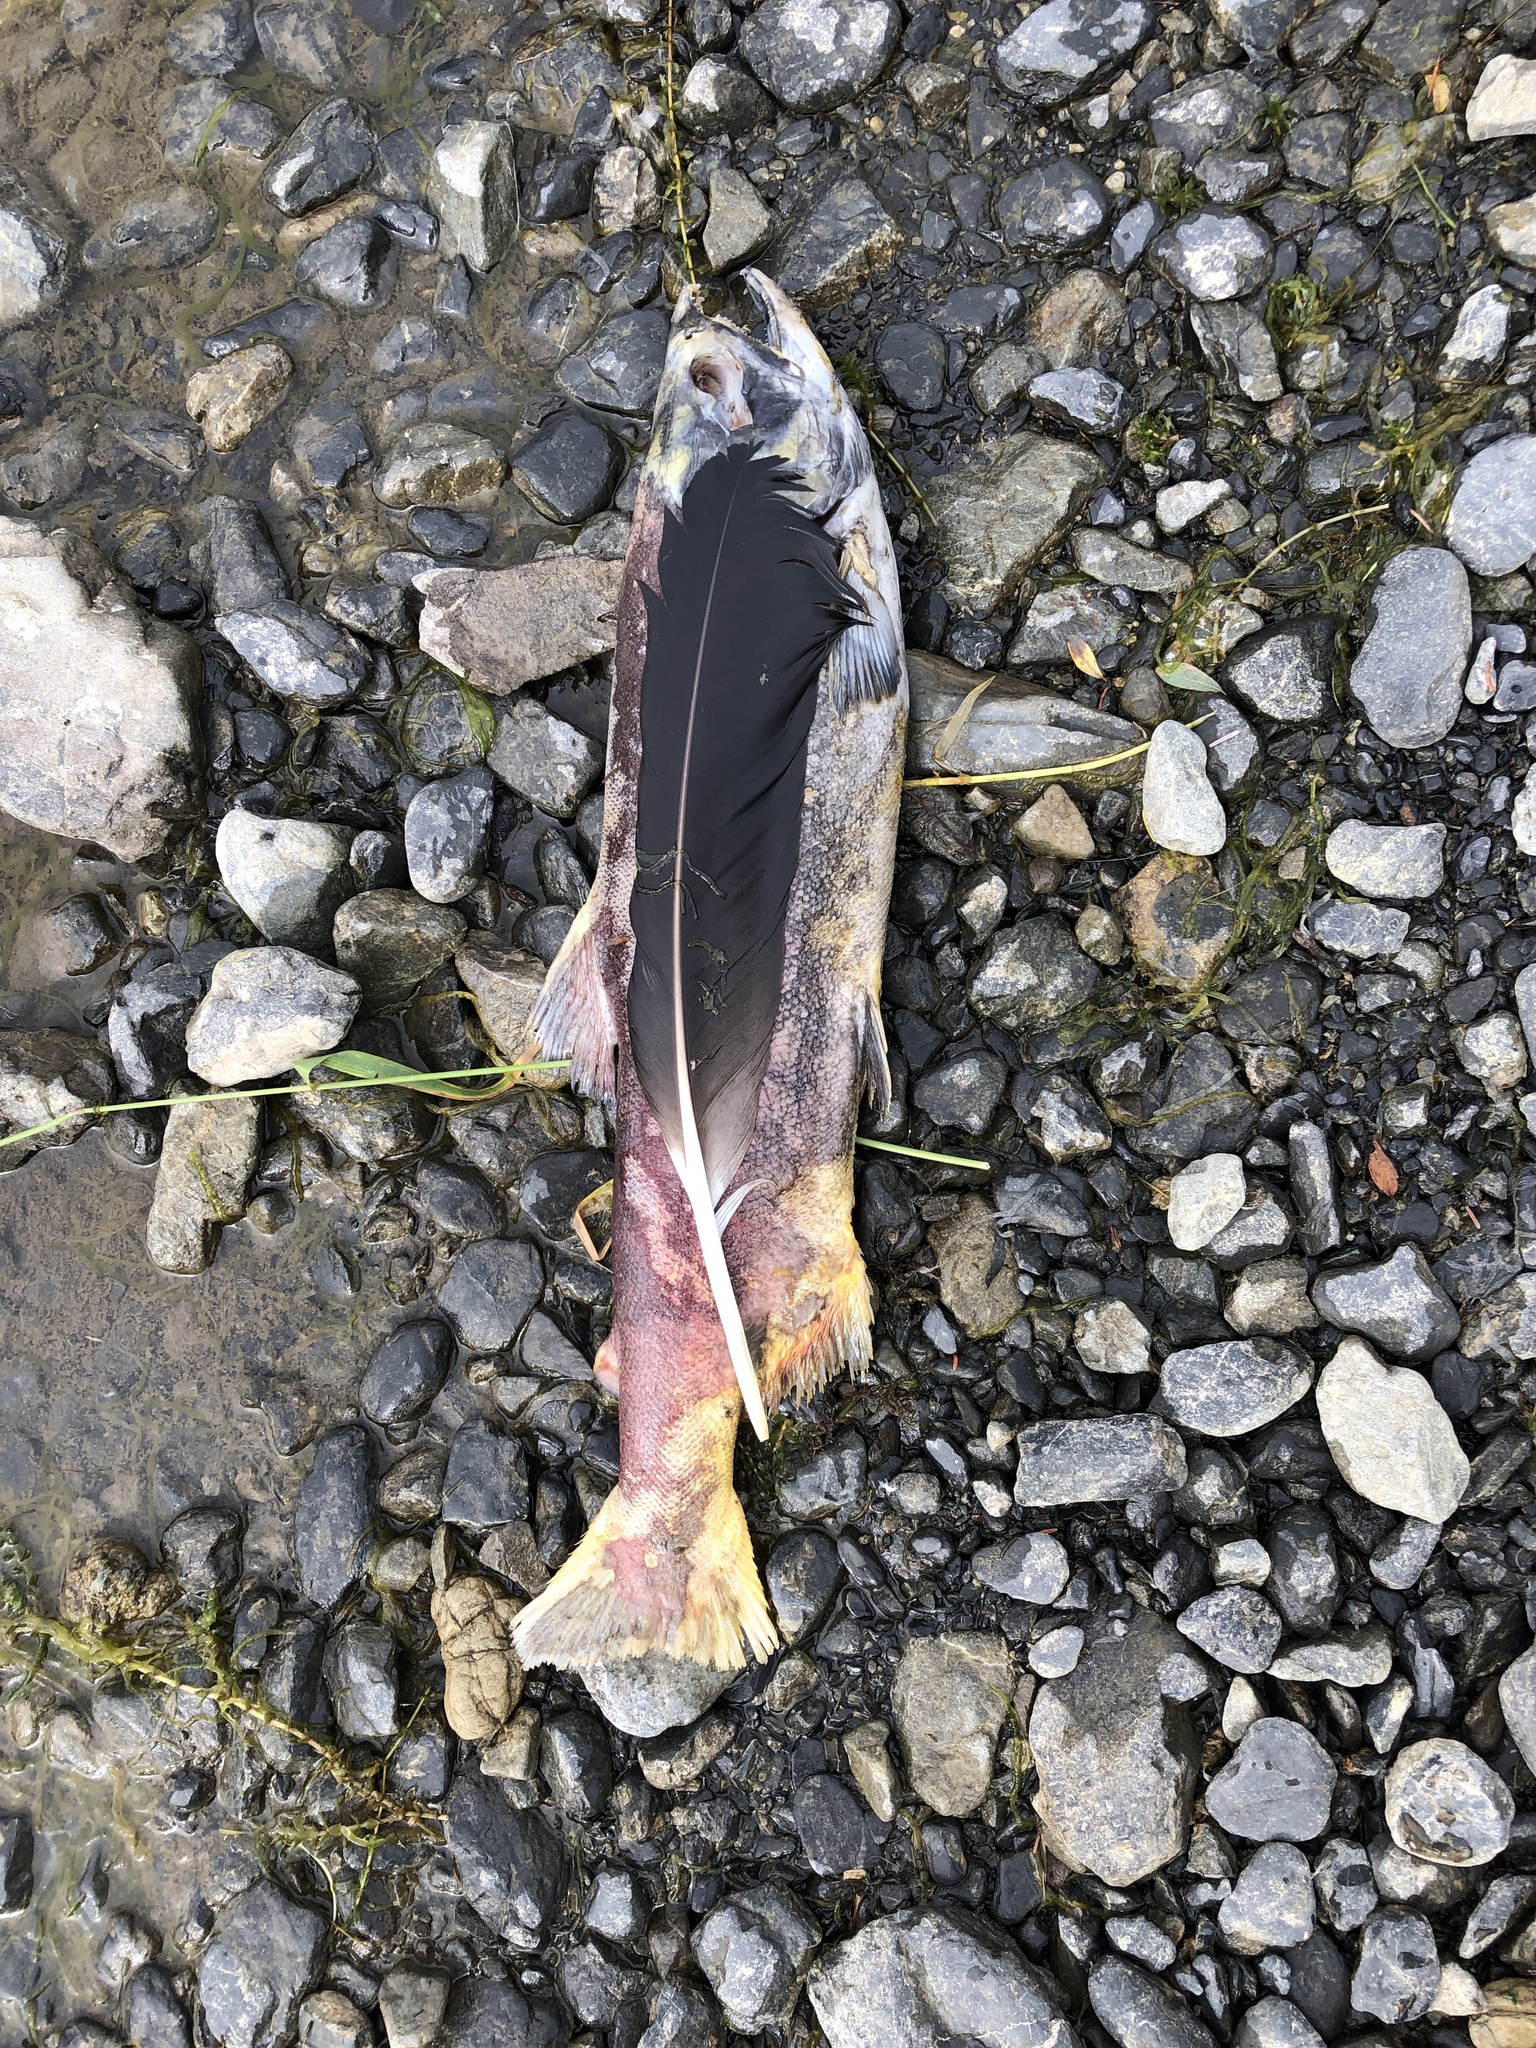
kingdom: Animalia
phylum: Chordata
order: Salmoniformes
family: Salmonidae
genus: Oncorhynchus
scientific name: Oncorhynchus nerka
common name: Sockeye salmon
